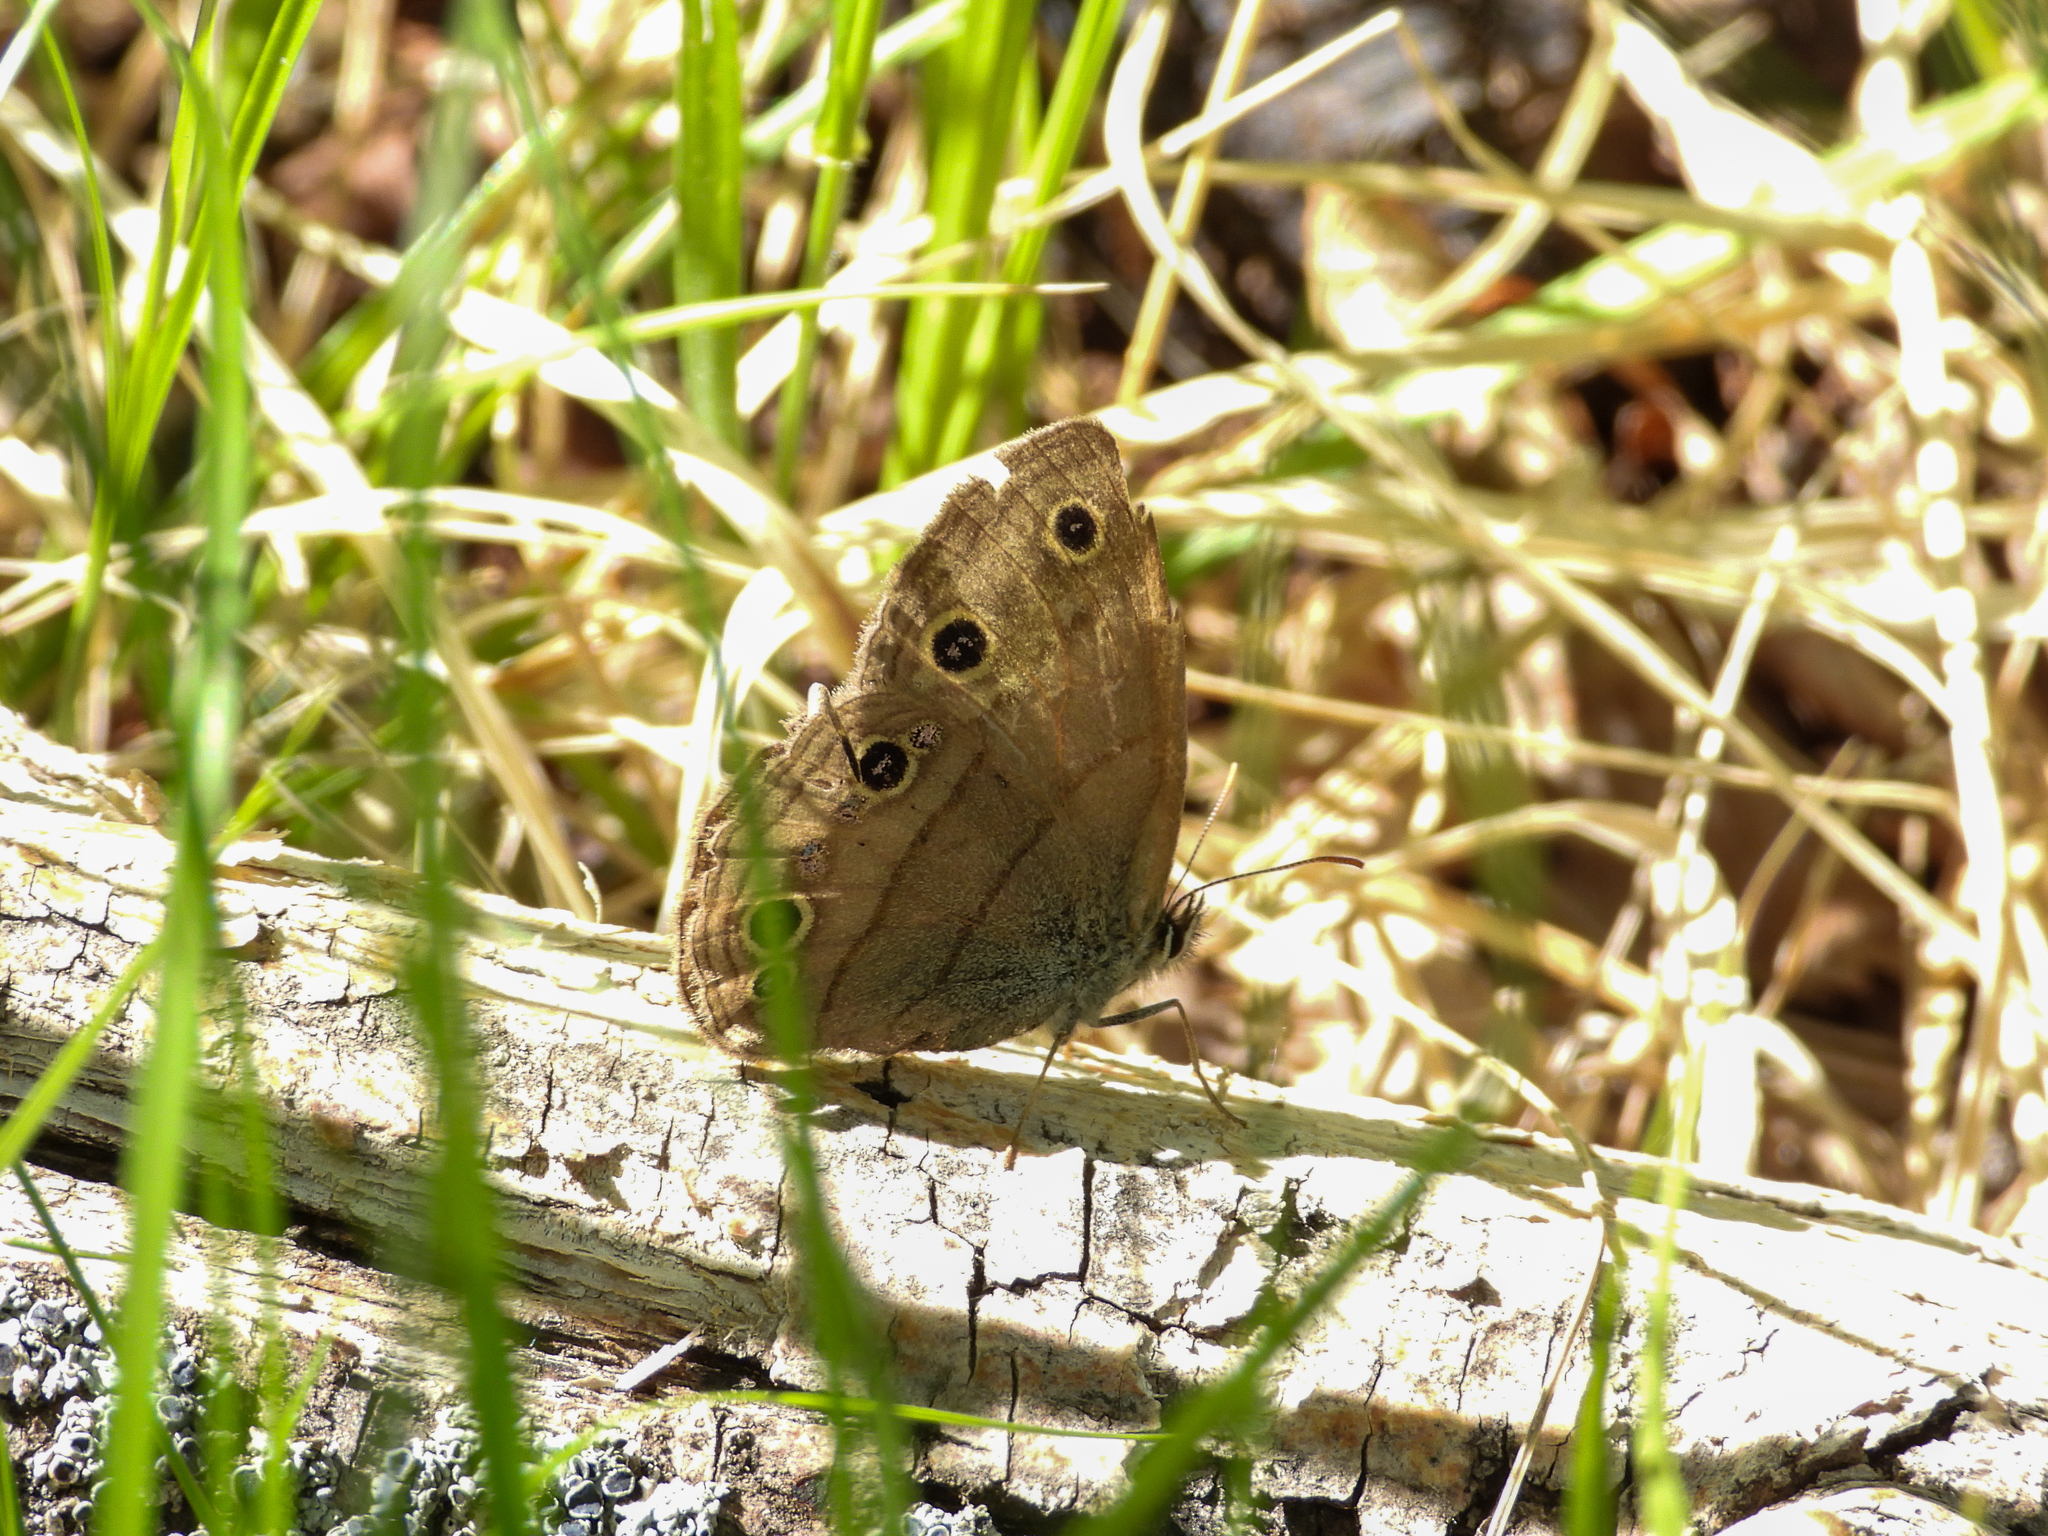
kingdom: Animalia
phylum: Arthropoda
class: Insecta
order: Lepidoptera
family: Nymphalidae
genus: Euptychia
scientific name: Euptychia cymela
